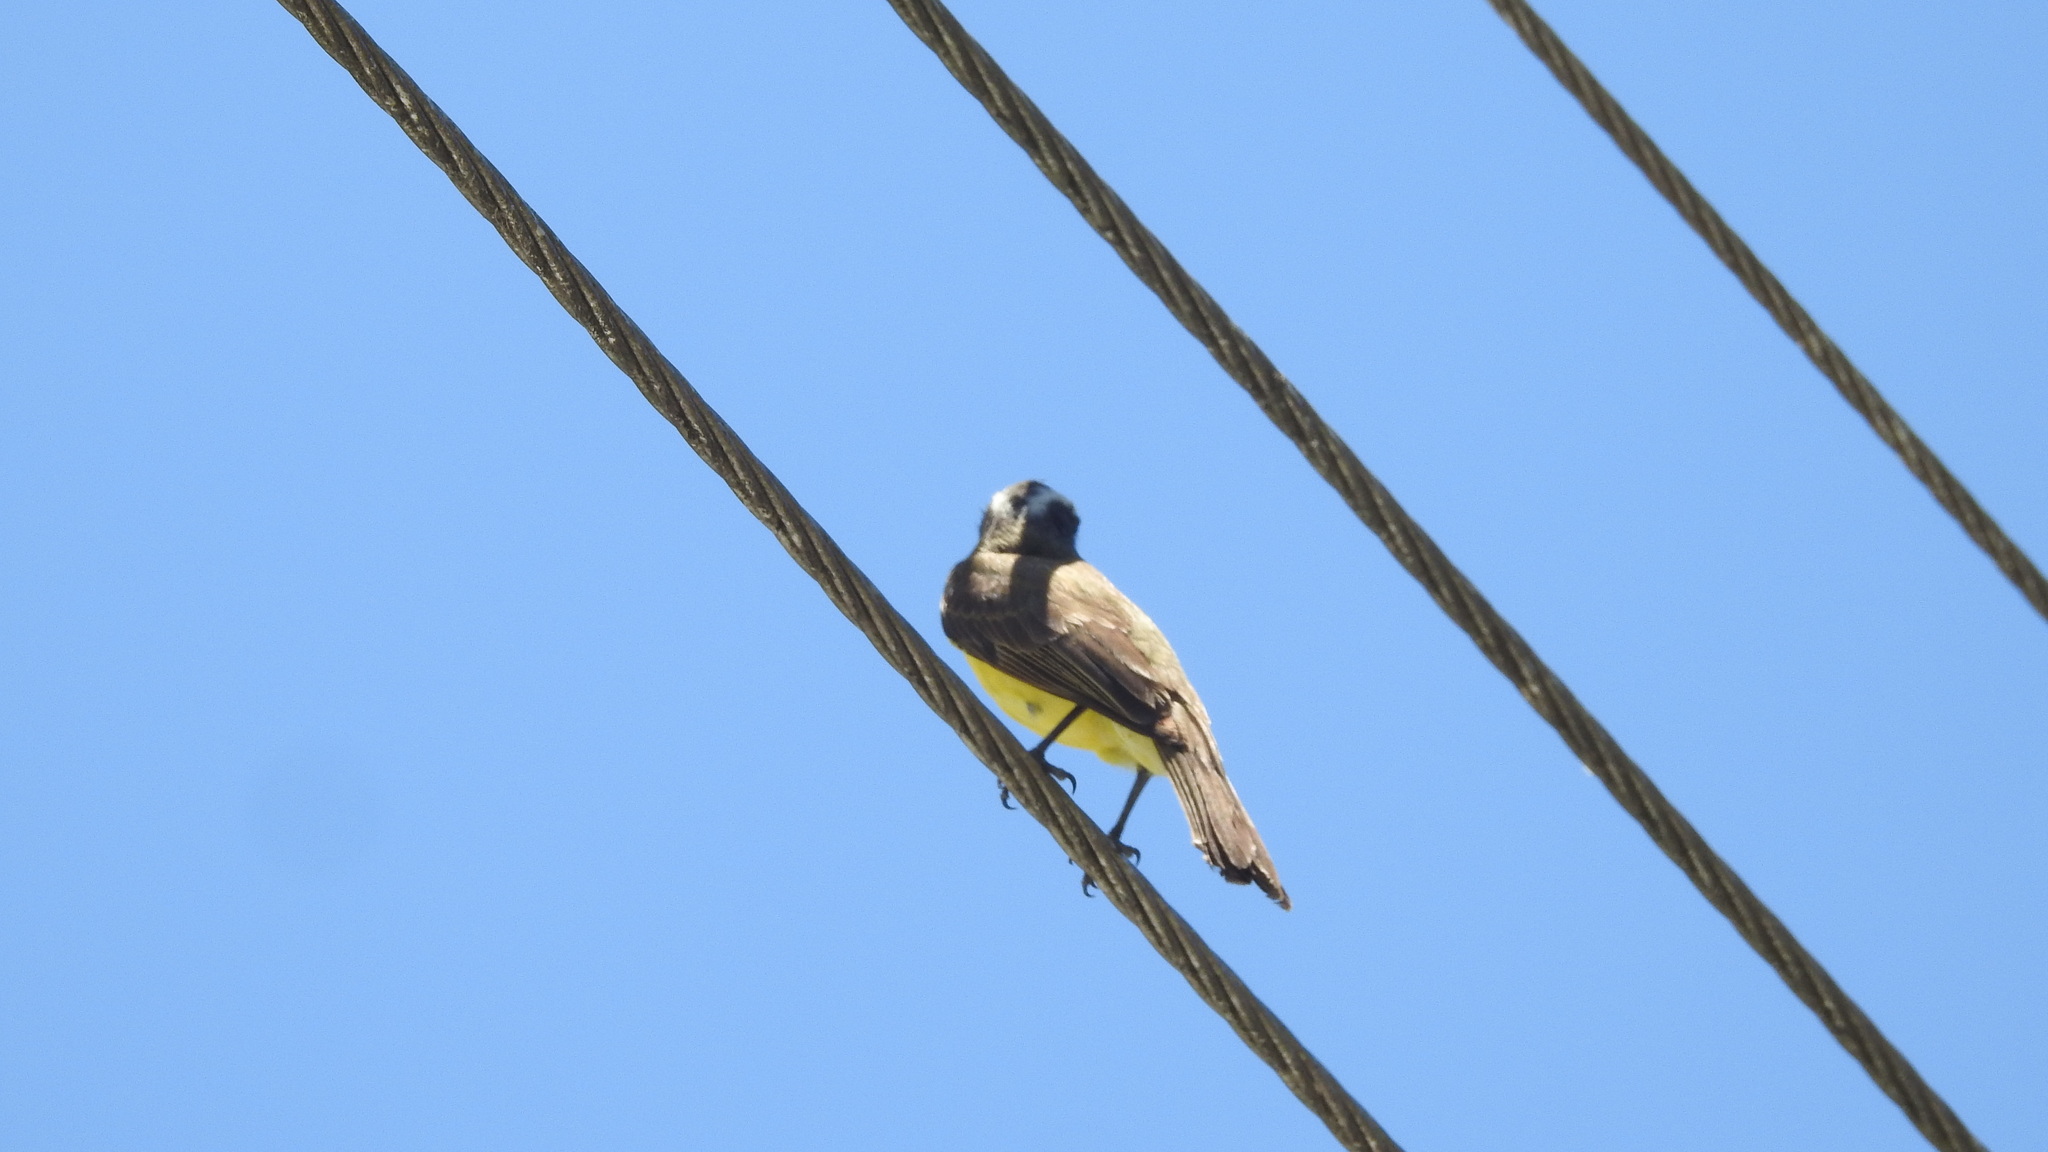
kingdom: Animalia
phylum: Chordata
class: Aves
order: Passeriformes
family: Tyrannidae
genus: Myiozetetes
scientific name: Myiozetetes similis
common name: Social flycatcher
